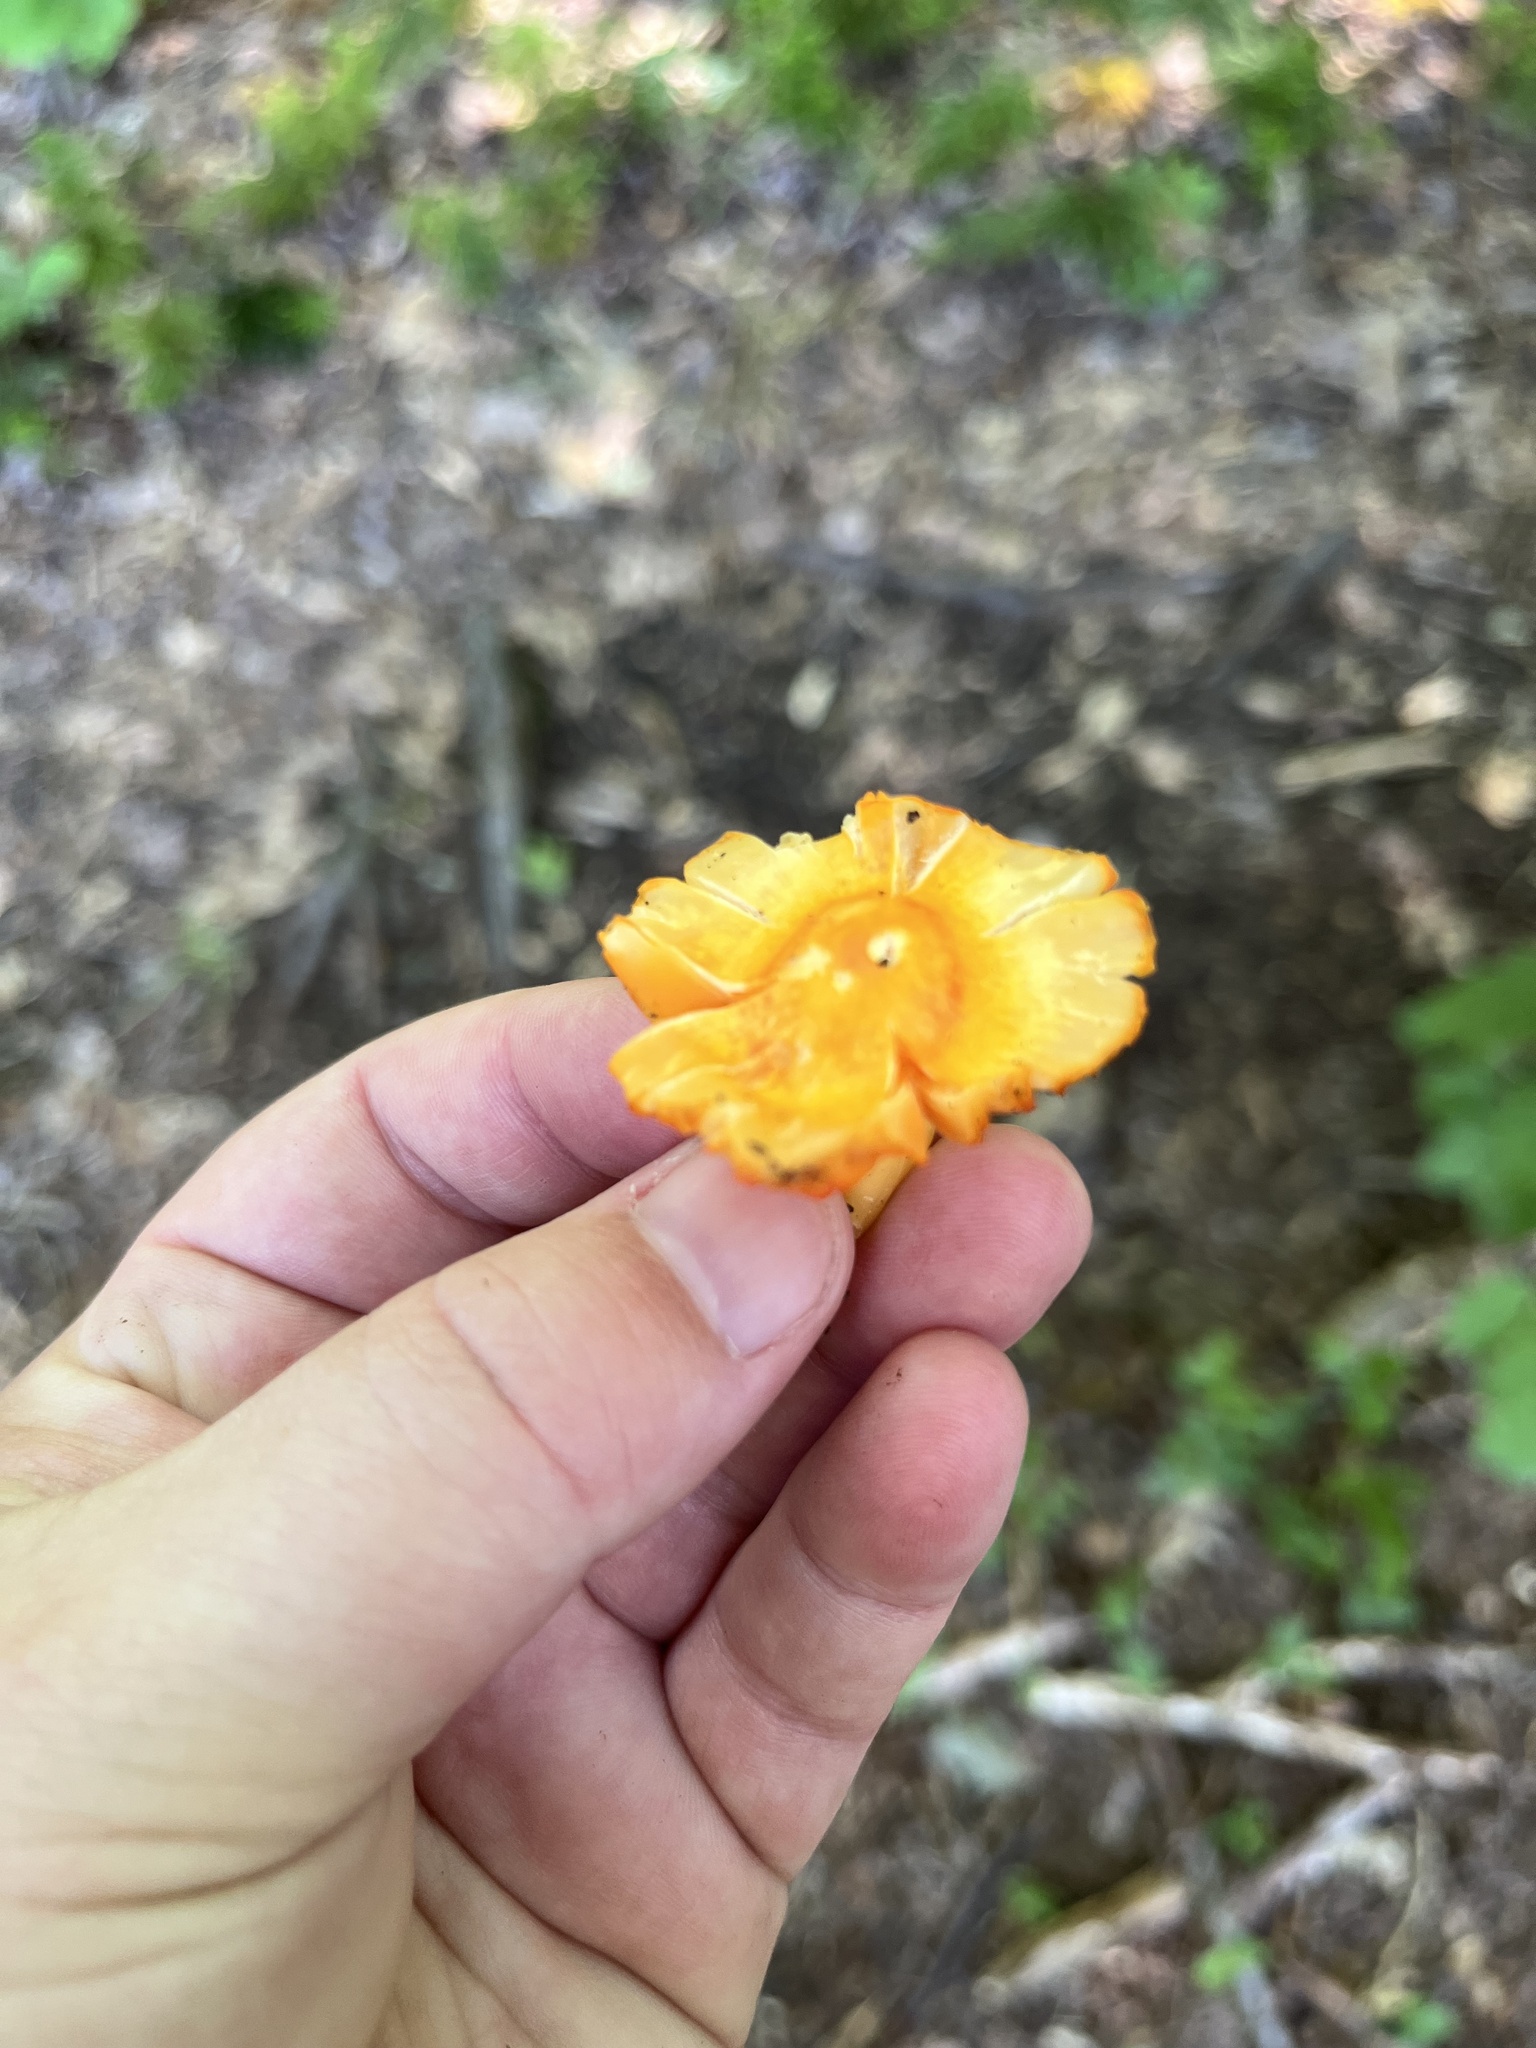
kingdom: Fungi
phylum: Basidiomycota
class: Agaricomycetes
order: Agaricales
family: Hygrophoraceae
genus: Humidicutis
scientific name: Humidicutis marginata
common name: Orange gilled waxcap
